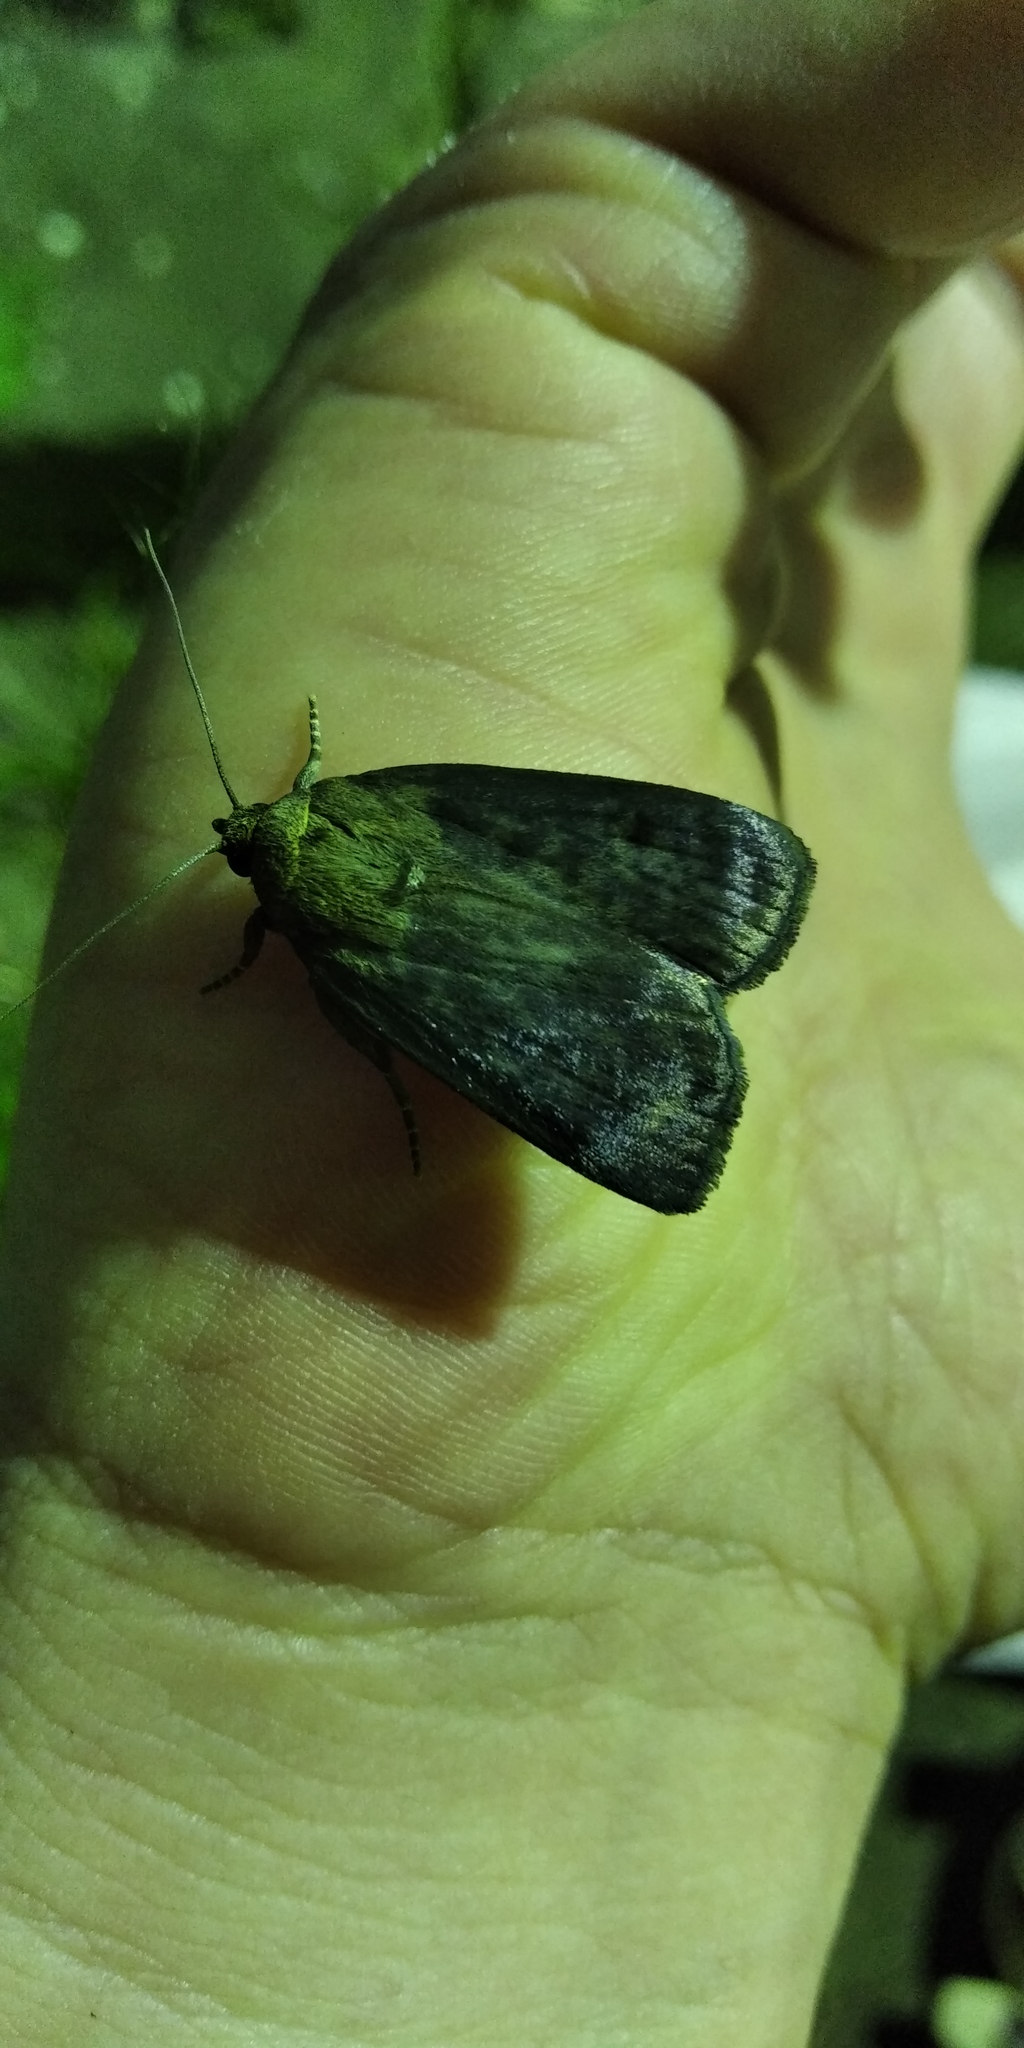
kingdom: Animalia
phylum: Arthropoda
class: Insecta
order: Lepidoptera
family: Noctuidae
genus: Amphipyra
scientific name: Amphipyra livida
